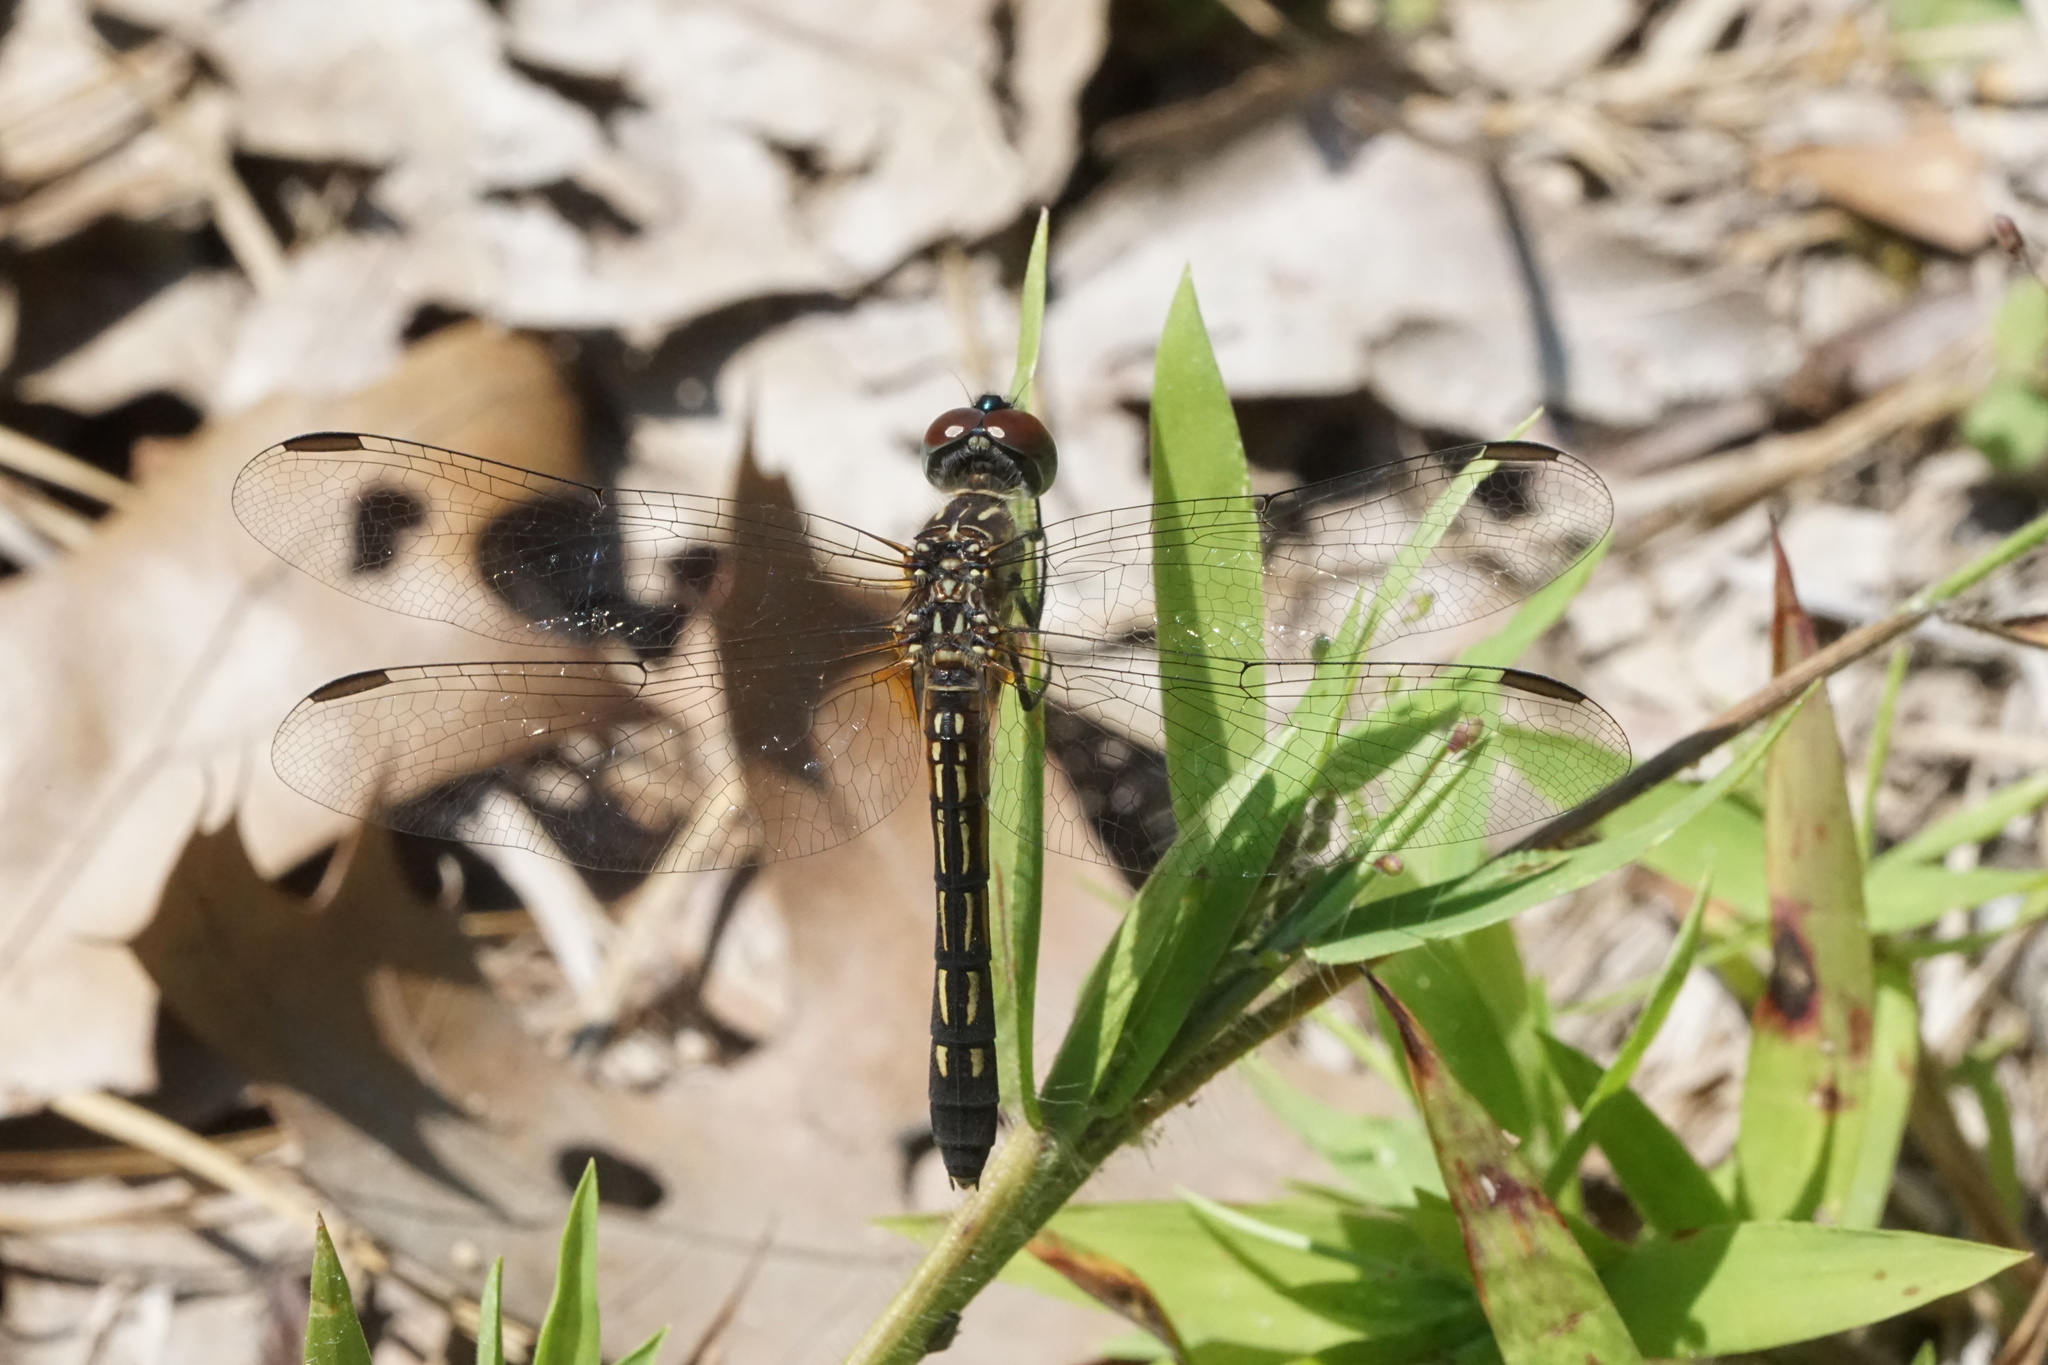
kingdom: Animalia
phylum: Arthropoda
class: Insecta
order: Odonata
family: Libellulidae
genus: Pachydiplax
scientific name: Pachydiplax longipennis
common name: Blue dasher
